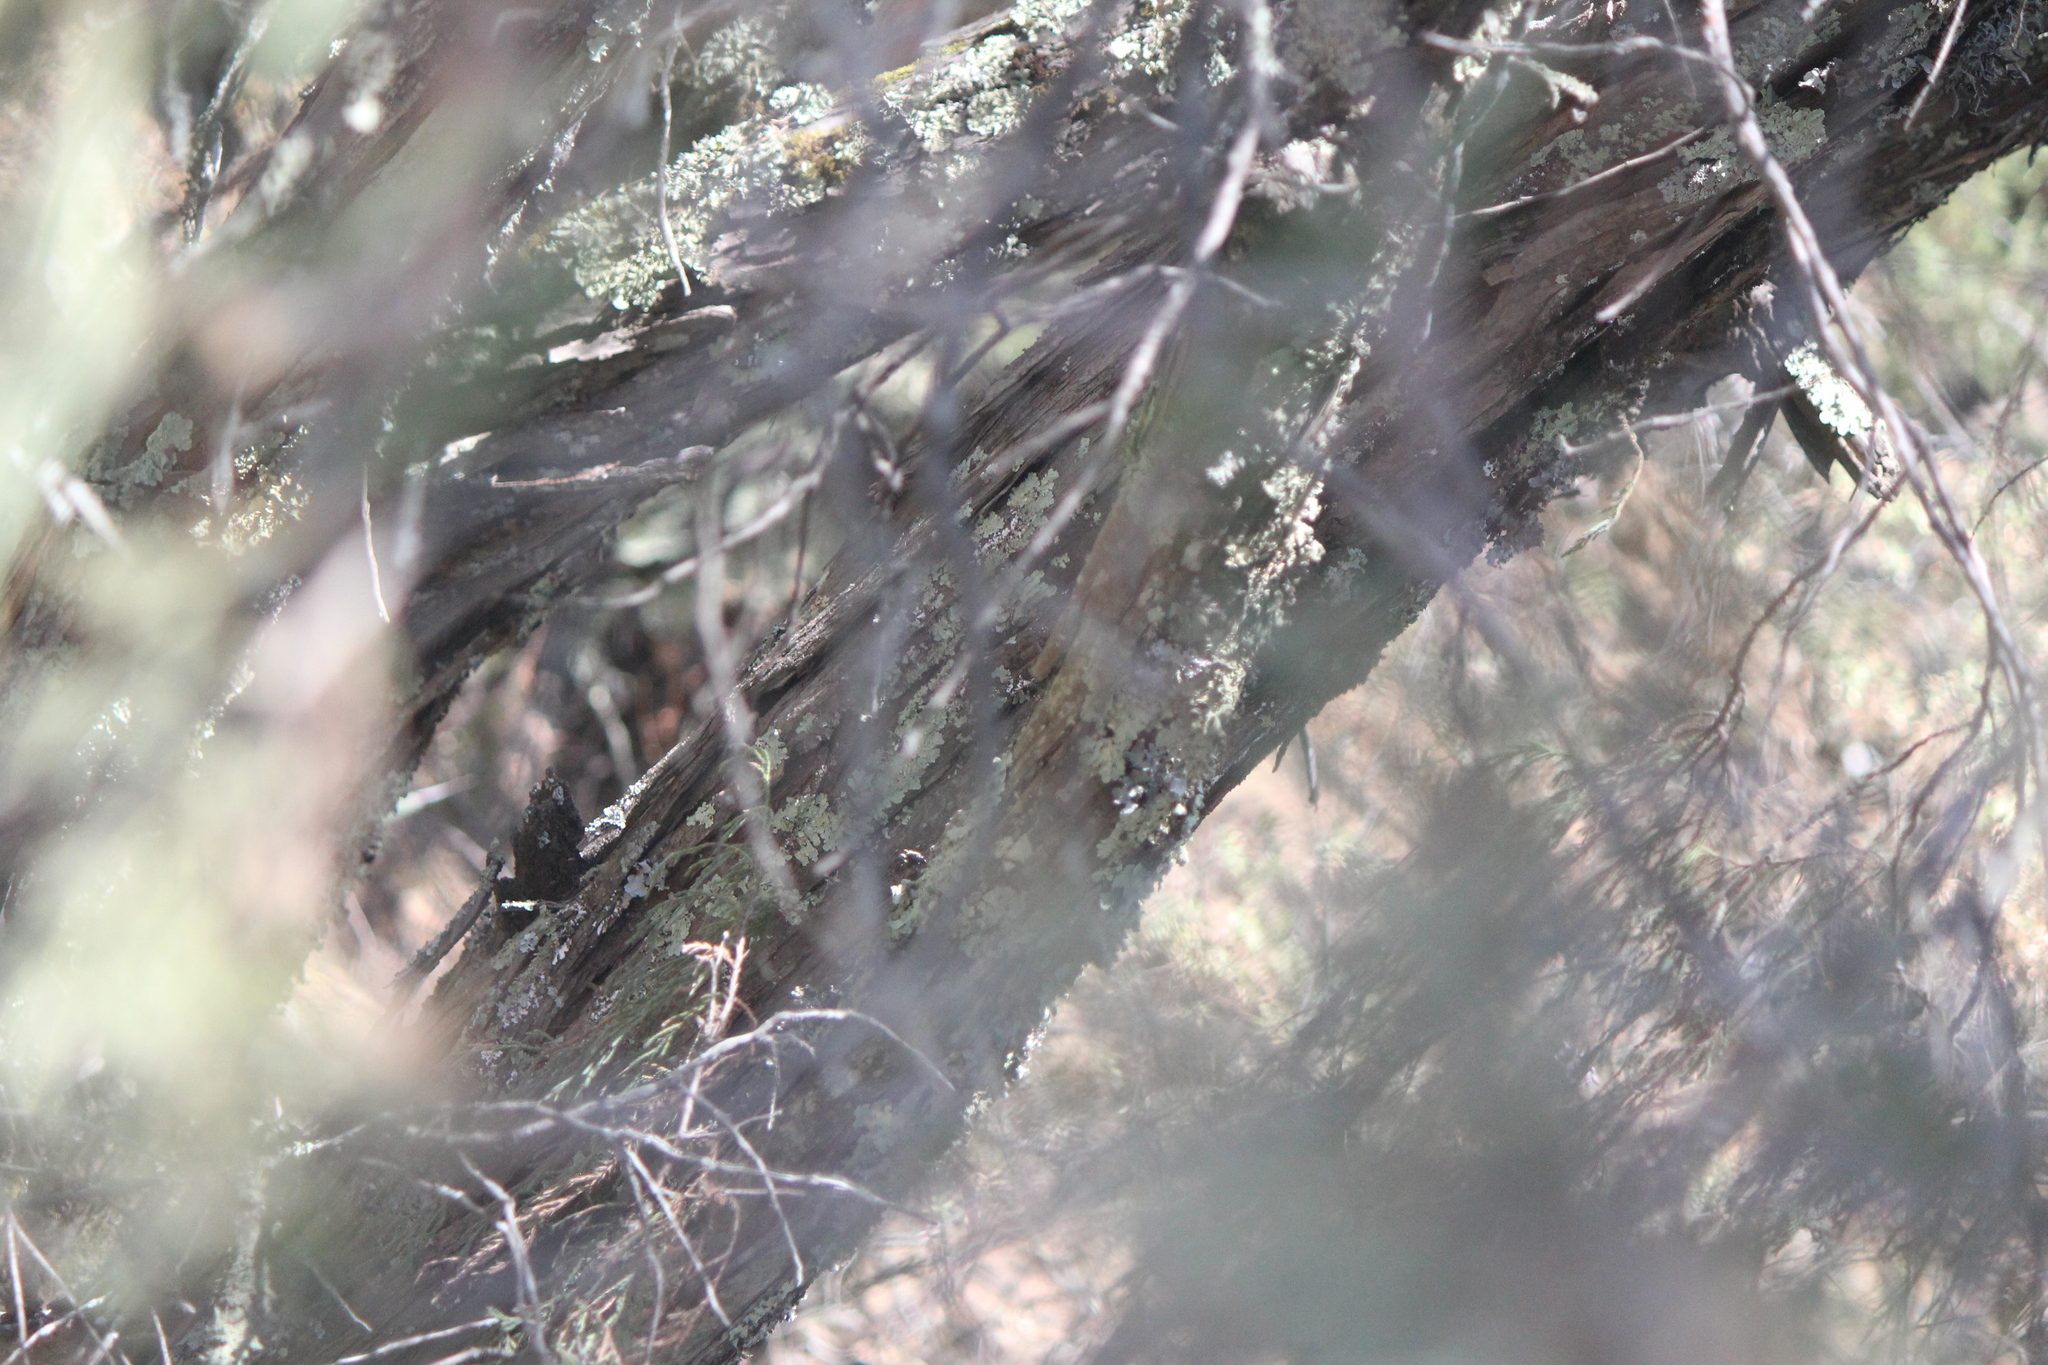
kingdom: Plantae
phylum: Tracheophyta
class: Pinopsida
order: Pinales
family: Cupressaceae
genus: Juniperus
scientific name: Juniperus flaccida
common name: Drooping juniper
